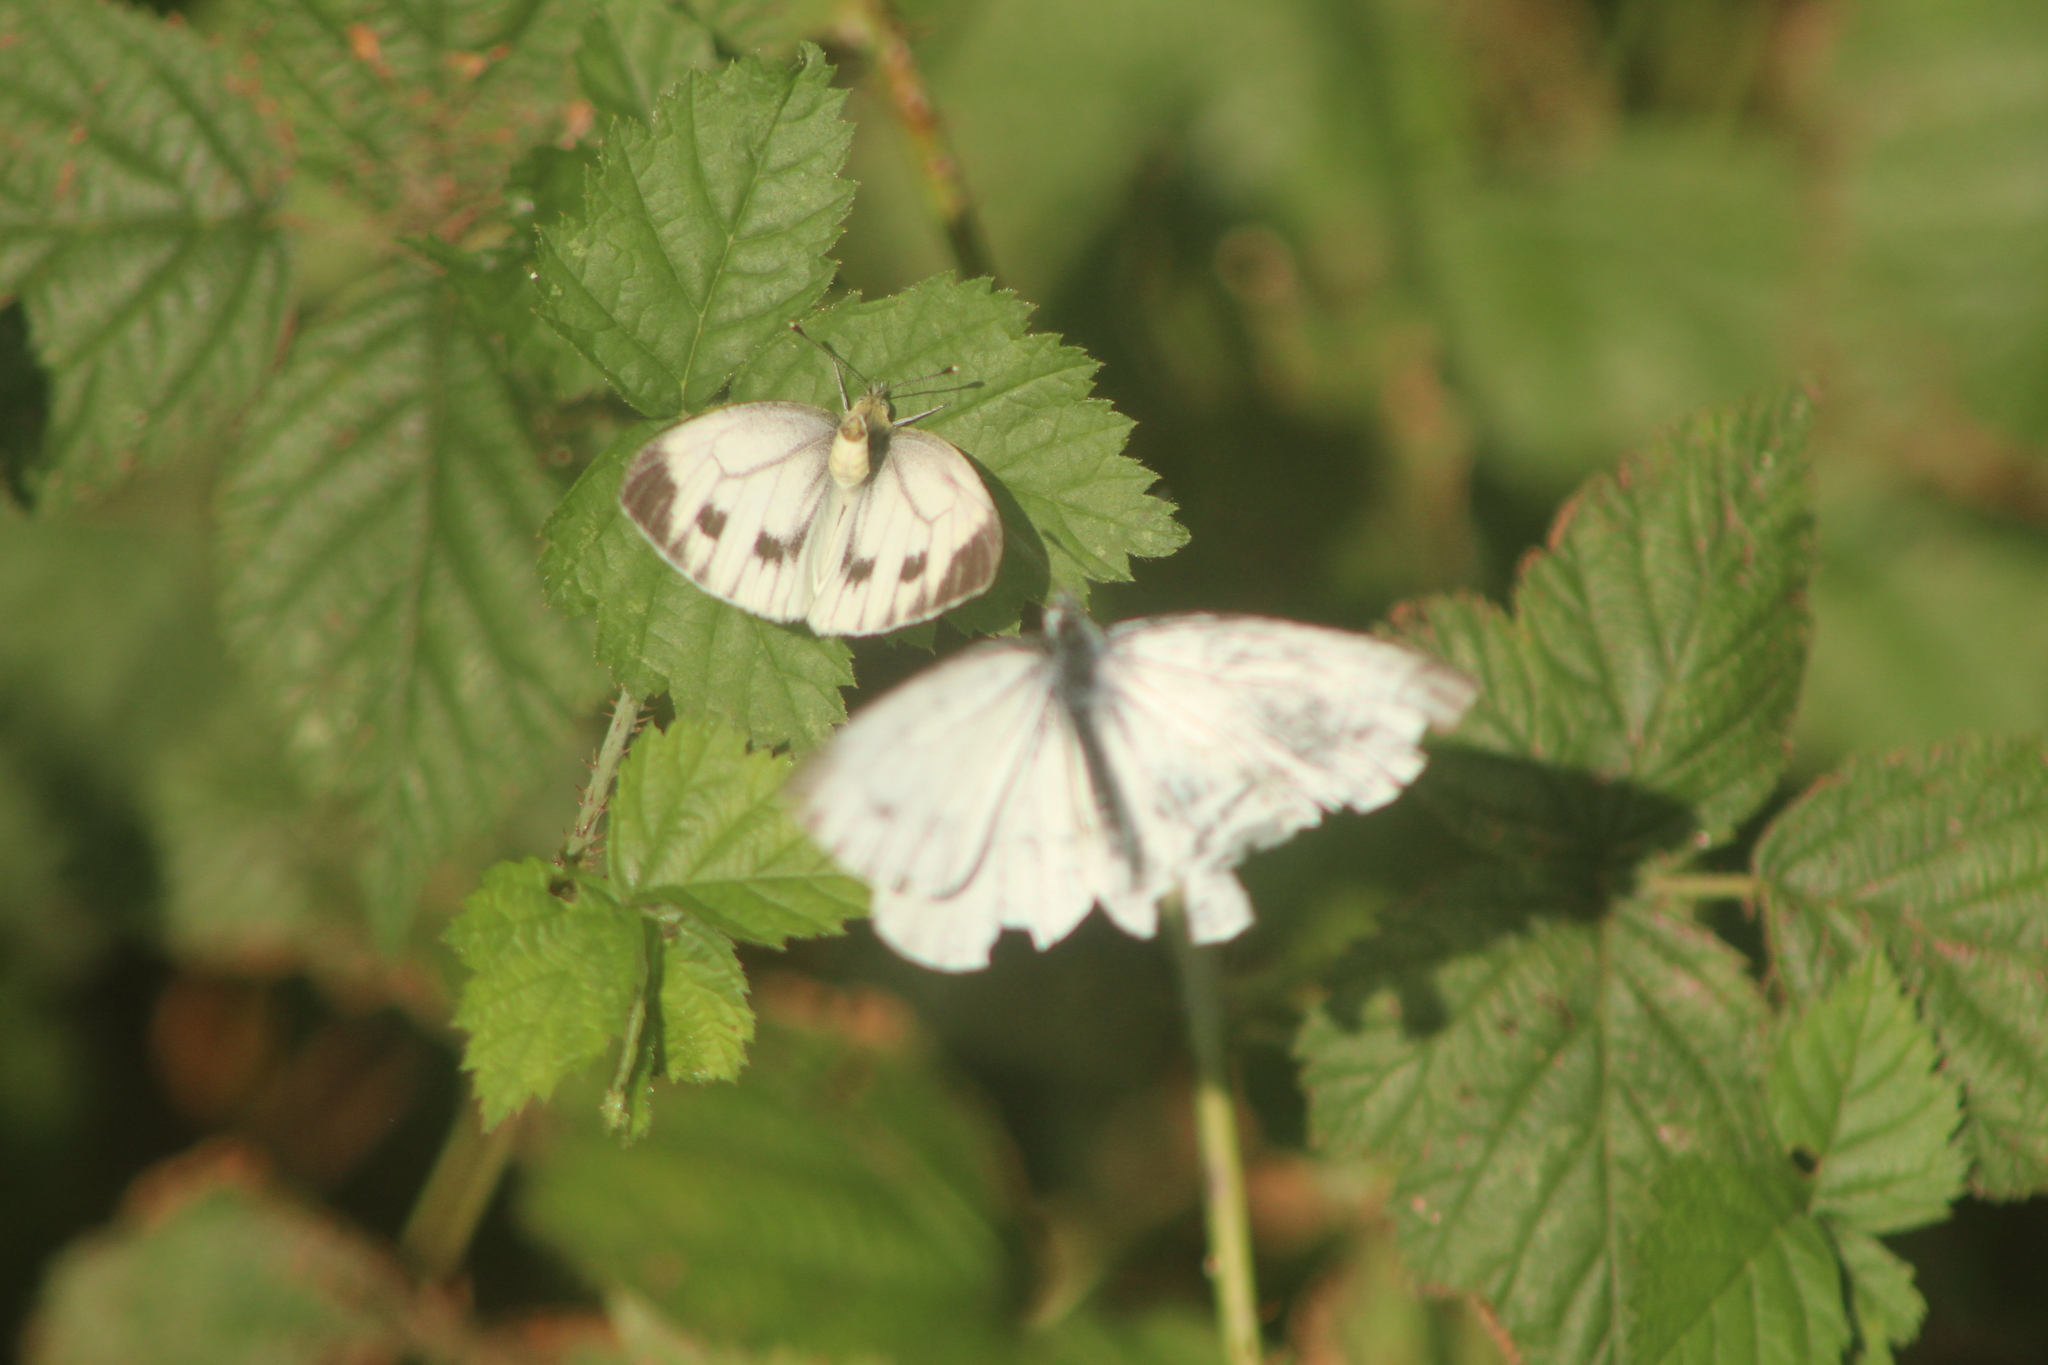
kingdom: Animalia
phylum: Arthropoda
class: Insecta
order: Lepidoptera
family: Pieridae
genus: Pieris
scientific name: Pieris napi
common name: Green-veined white
